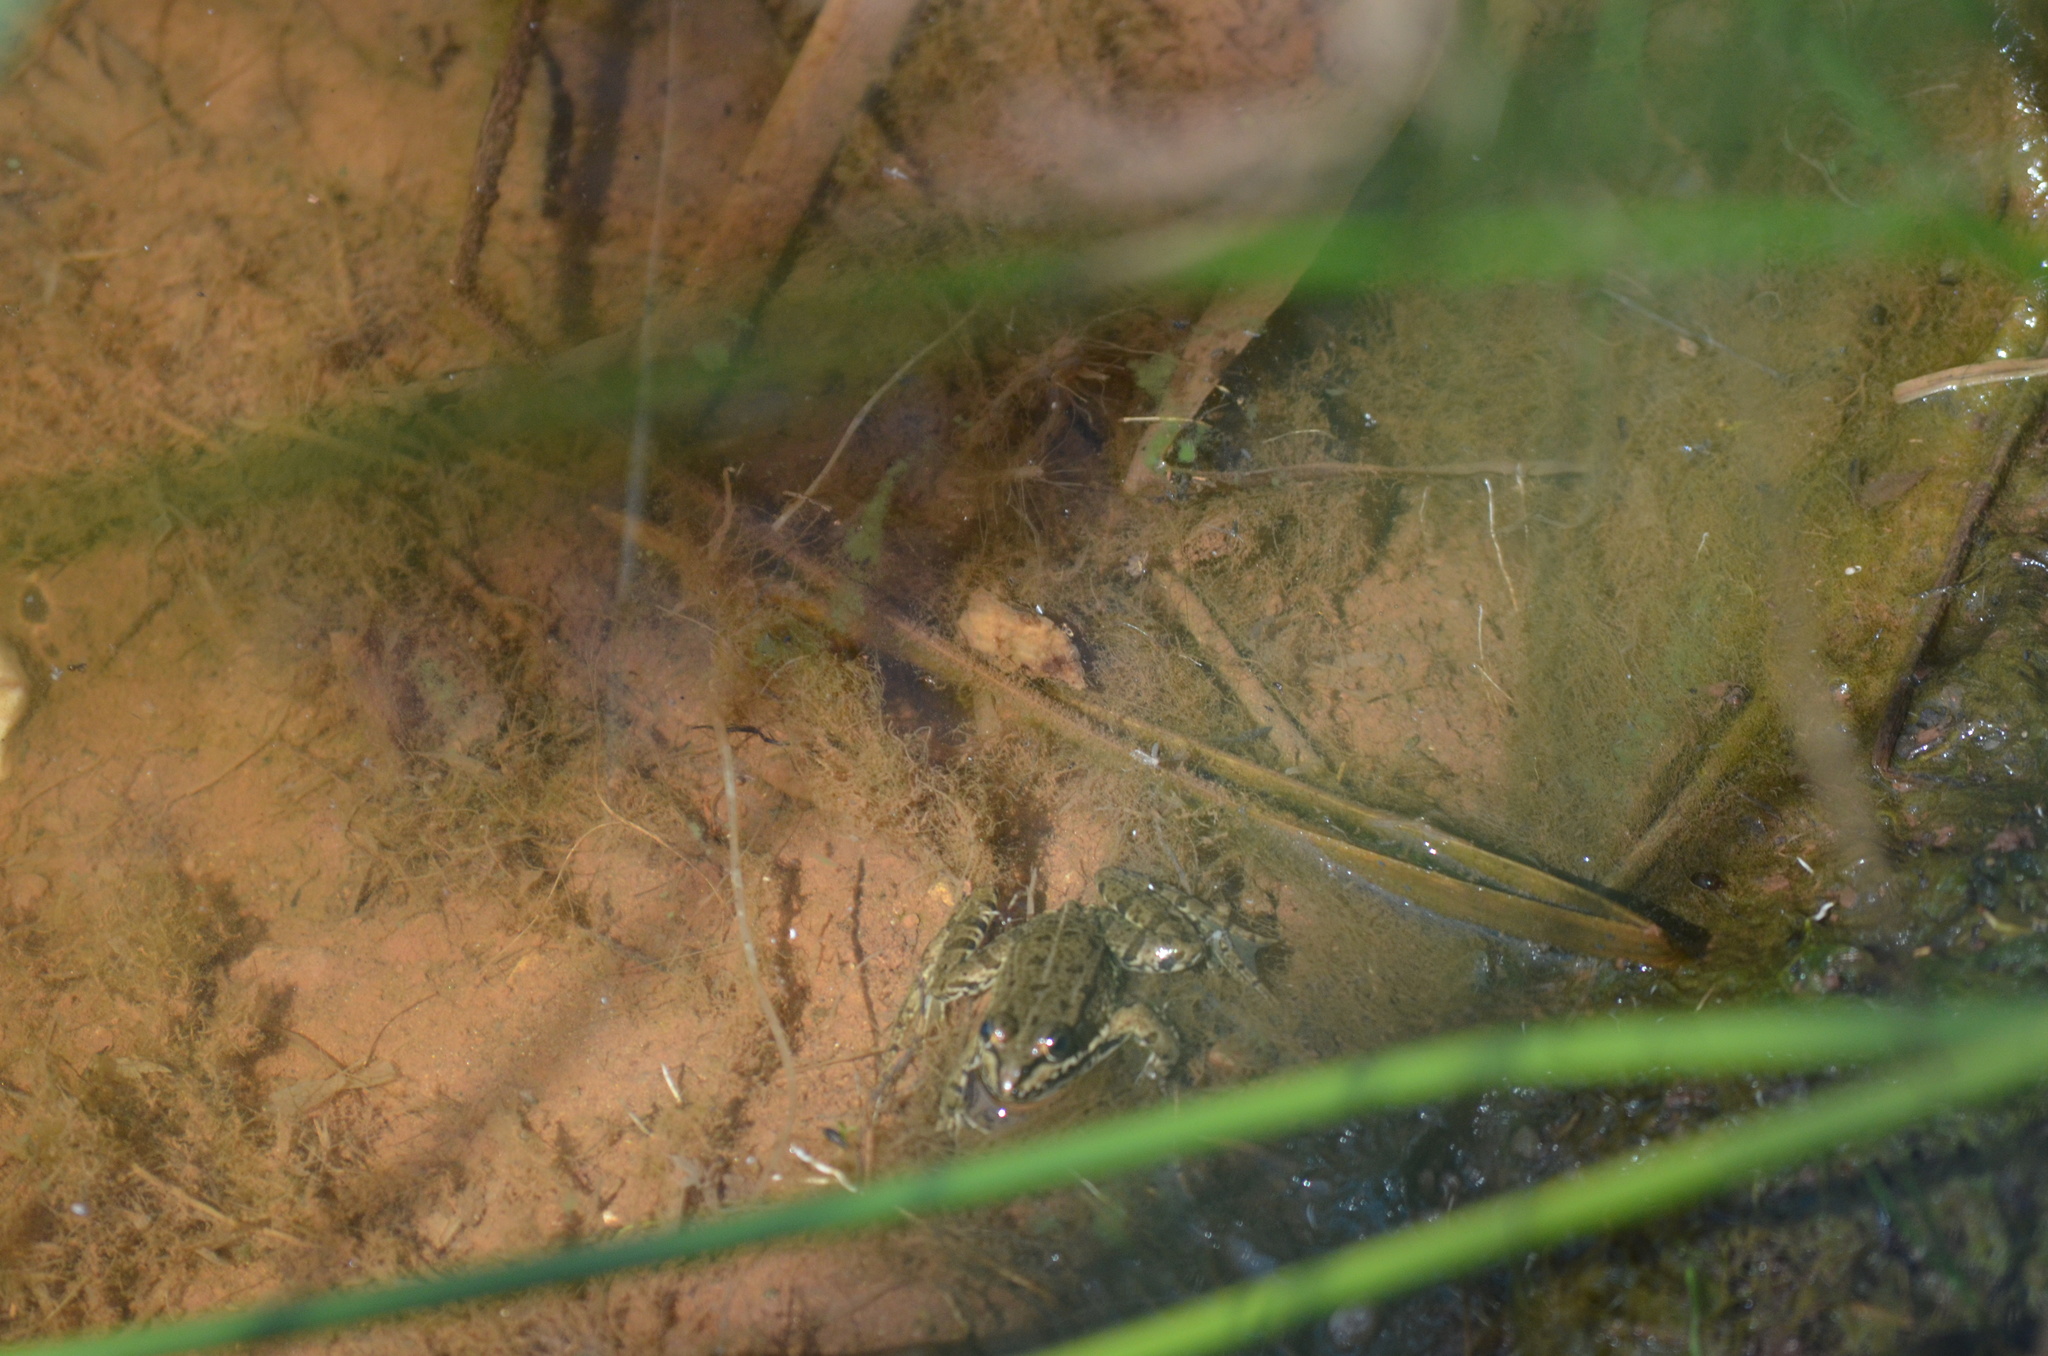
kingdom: Animalia
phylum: Chordata
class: Amphibia
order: Anura
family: Ranidae
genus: Pelophylax
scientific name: Pelophylax perezi
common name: Perez's frog
